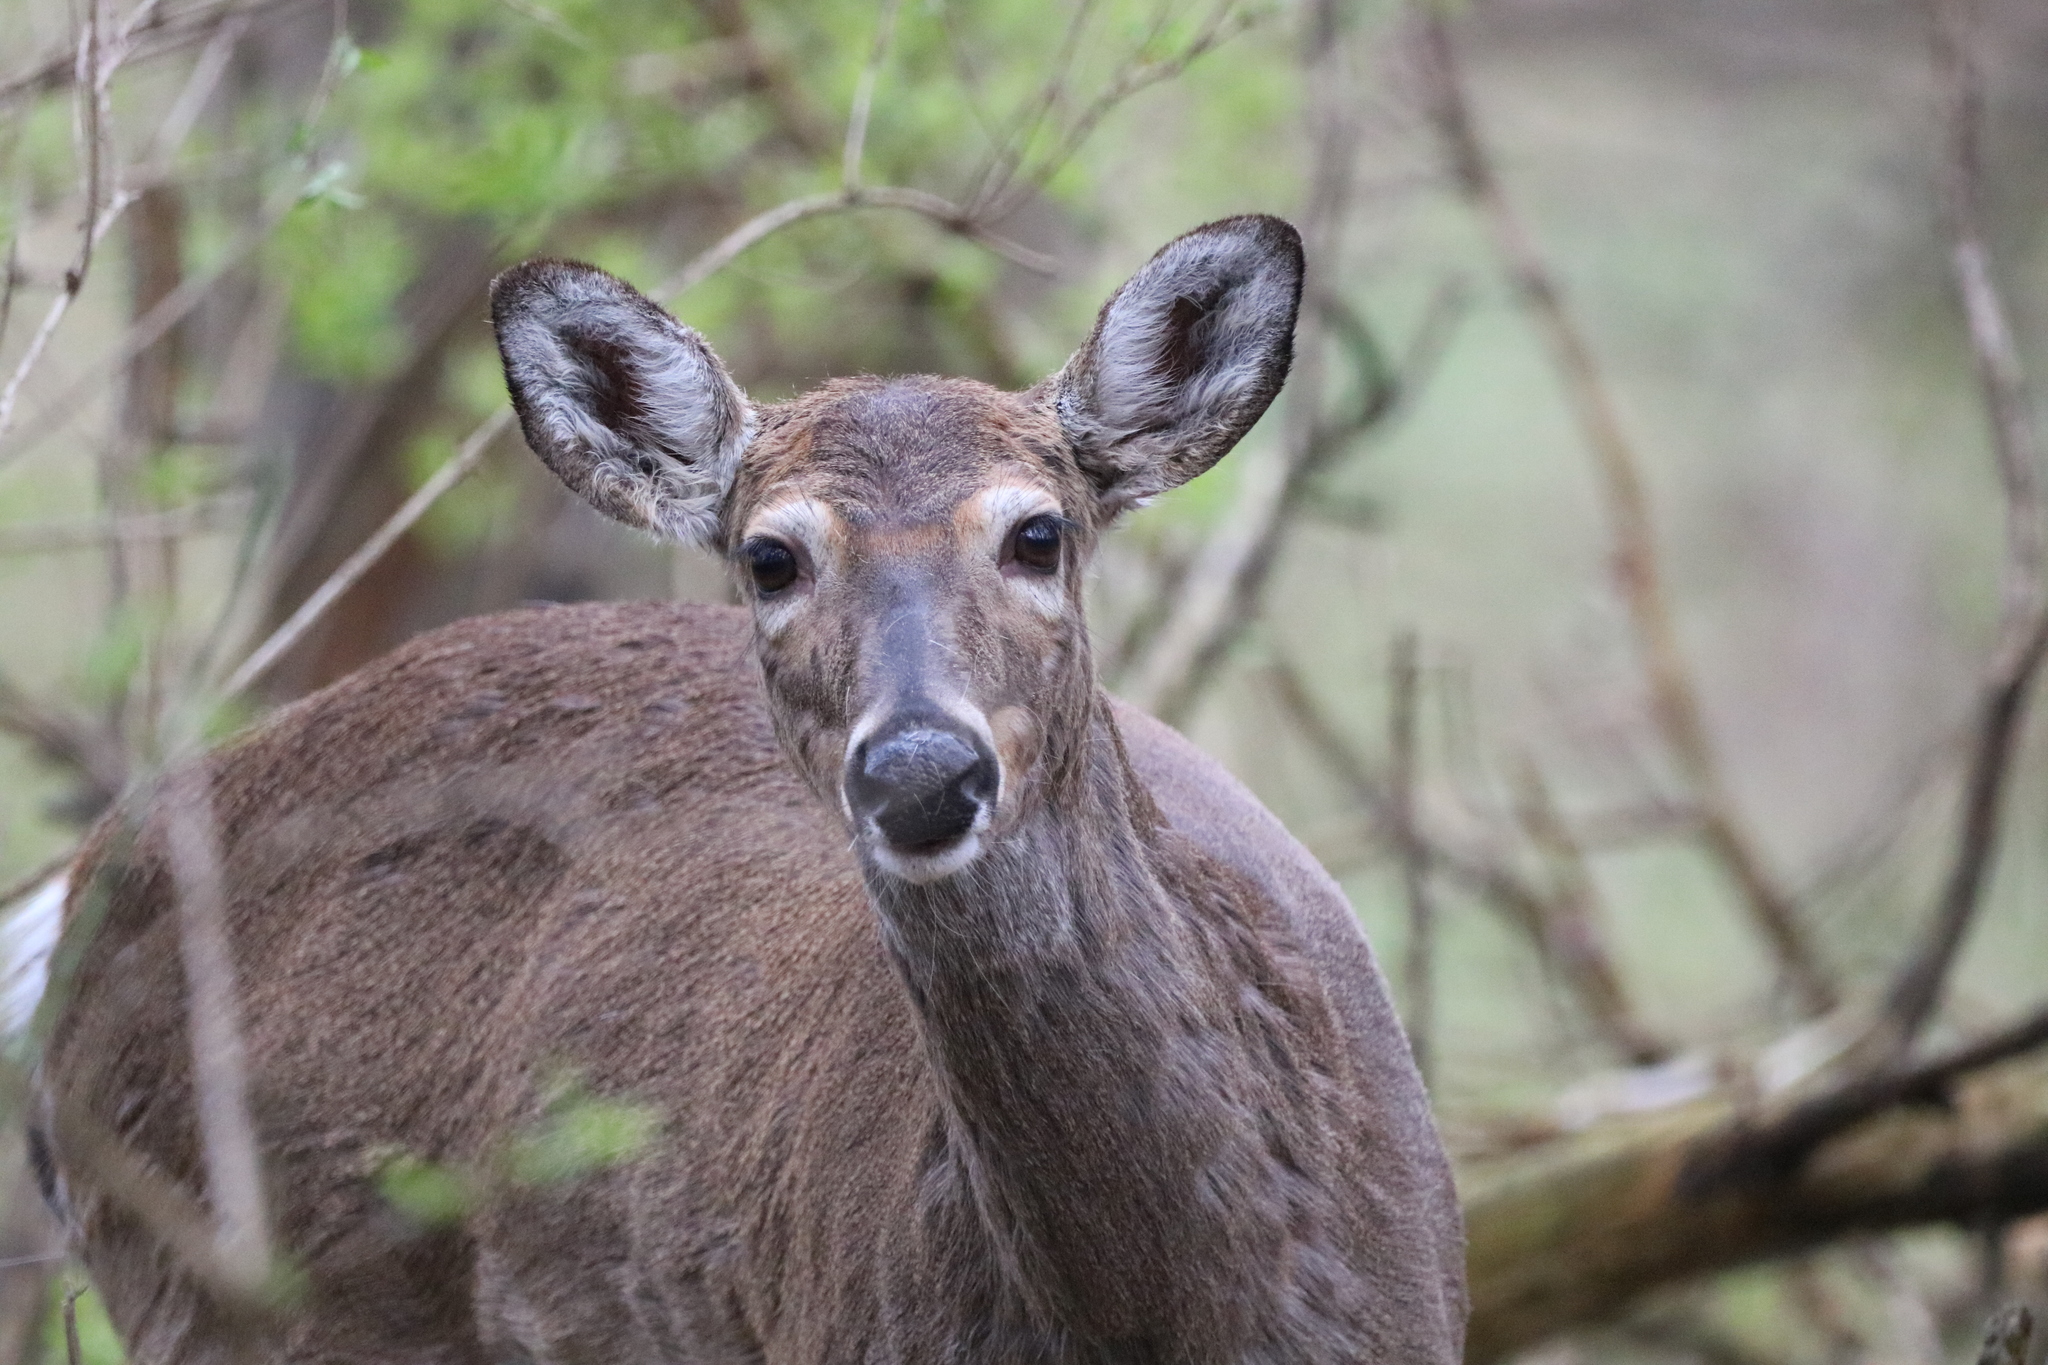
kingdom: Animalia
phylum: Chordata
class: Mammalia
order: Artiodactyla
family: Cervidae
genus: Odocoileus
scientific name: Odocoileus virginianus
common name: White-tailed deer
